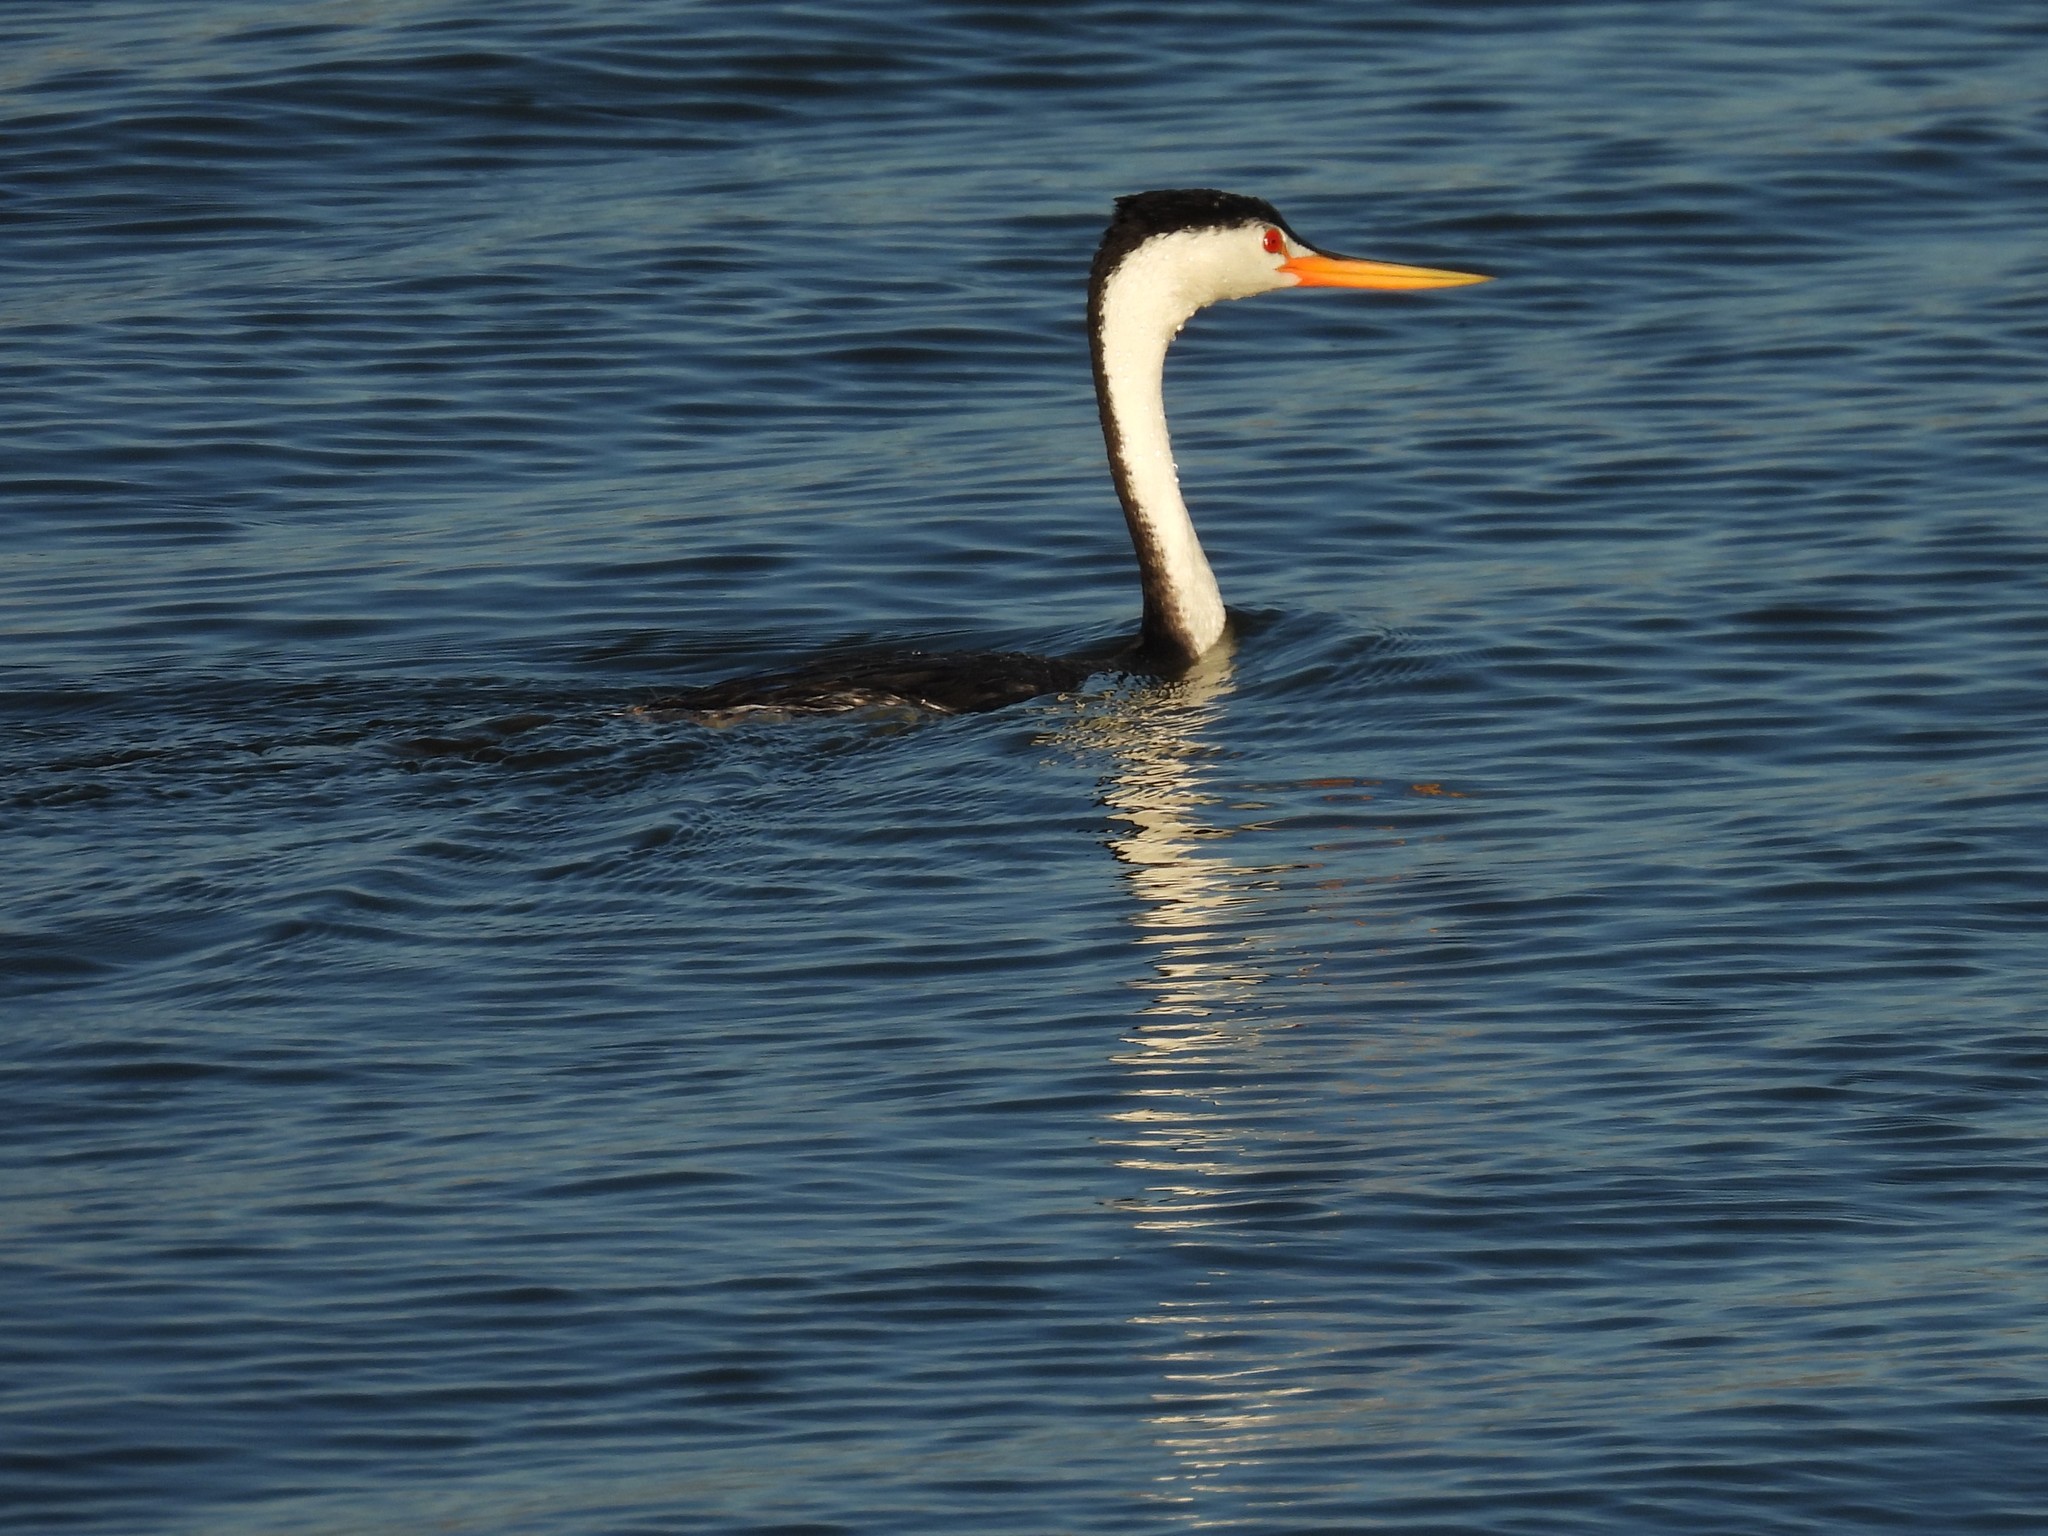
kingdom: Animalia
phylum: Chordata
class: Aves
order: Podicipediformes
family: Podicipedidae
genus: Aechmophorus
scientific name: Aechmophorus clarkii
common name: Clark's grebe
